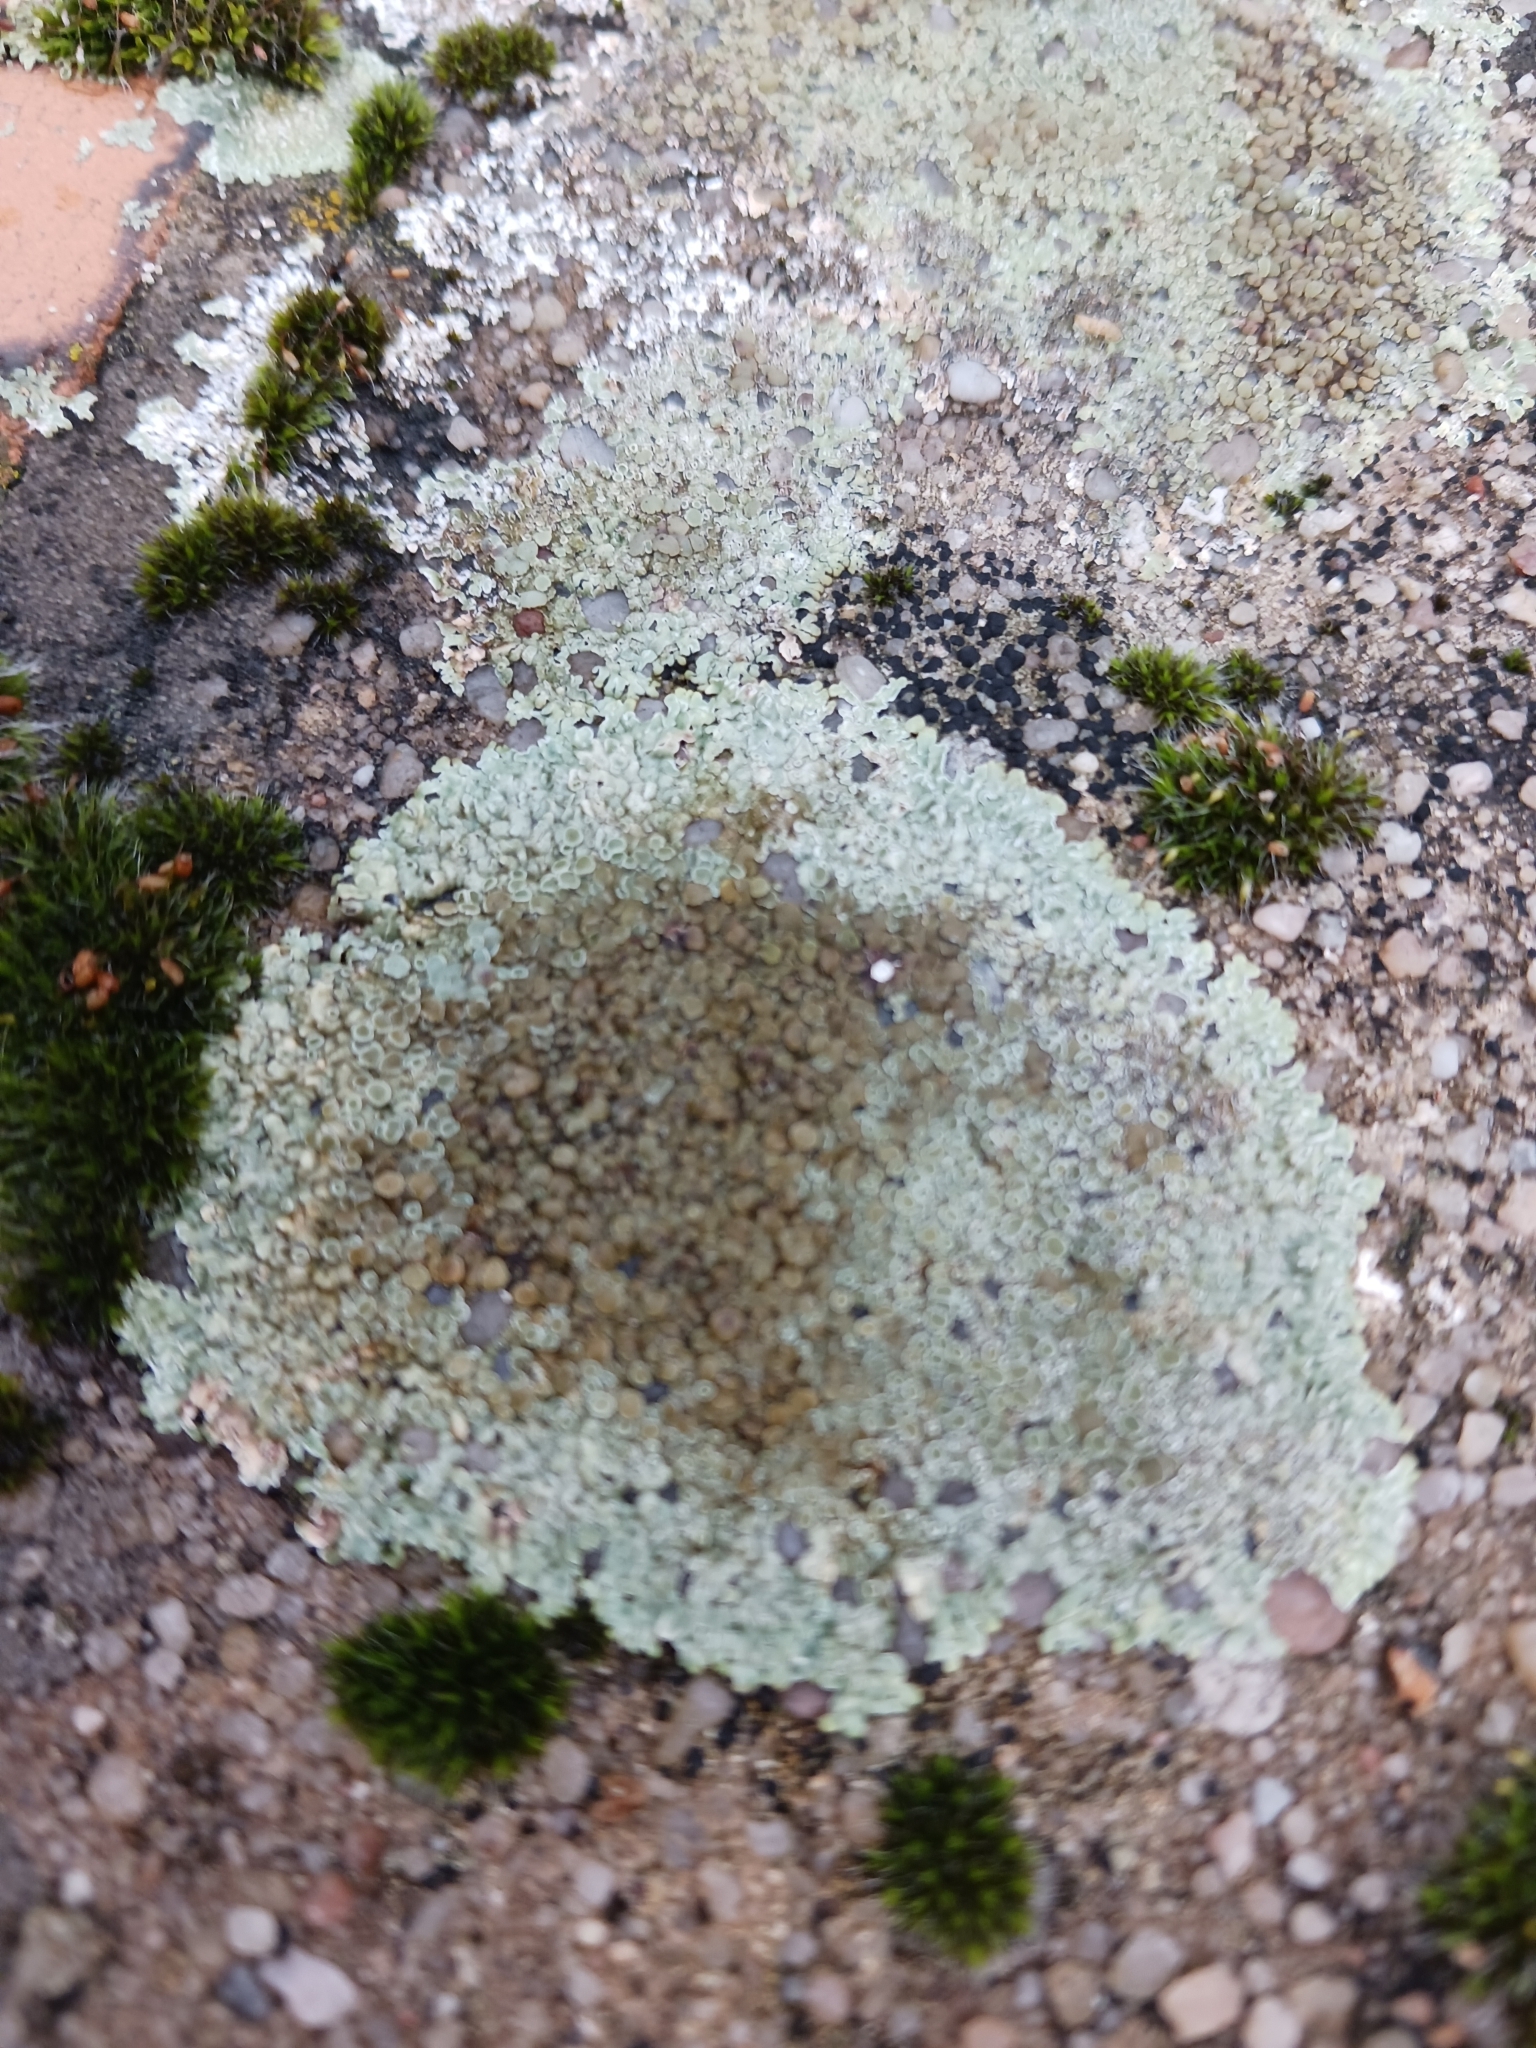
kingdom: Fungi
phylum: Ascomycota
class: Lecanoromycetes
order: Lecanorales
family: Lecanoraceae
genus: Protoparmeliopsis
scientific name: Protoparmeliopsis muralis
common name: Stonewall rim lichen
